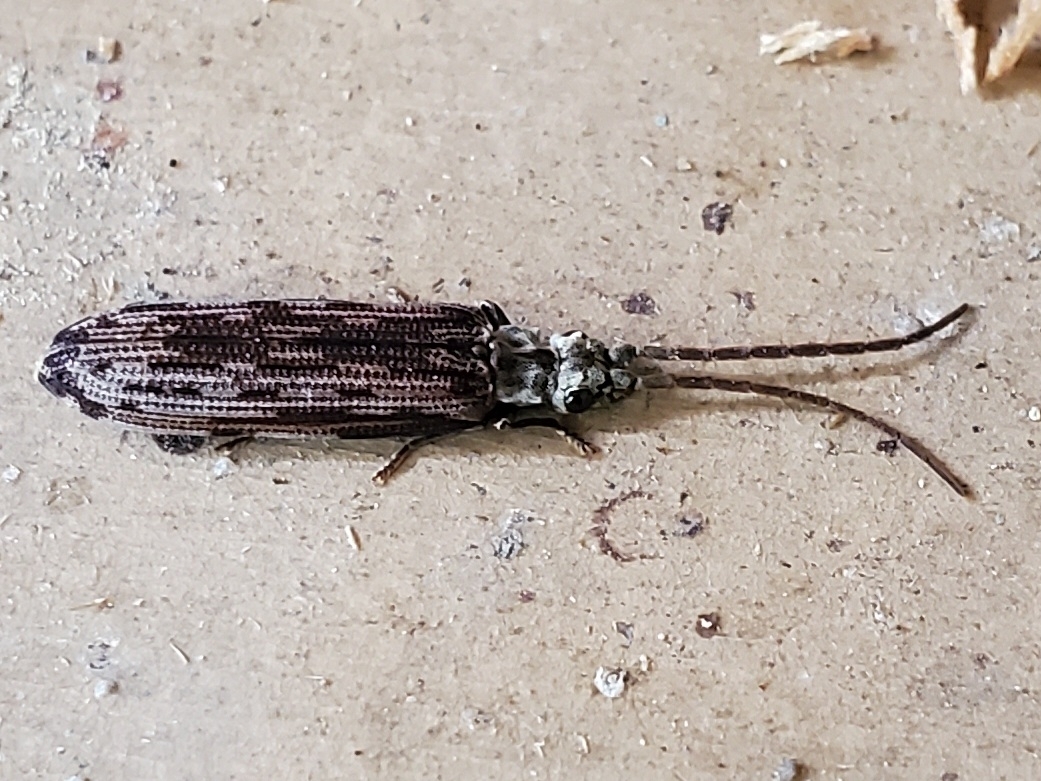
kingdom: Animalia
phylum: Arthropoda
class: Insecta
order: Coleoptera
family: Cupedidae
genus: Tenomerga
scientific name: Tenomerga cinerea
